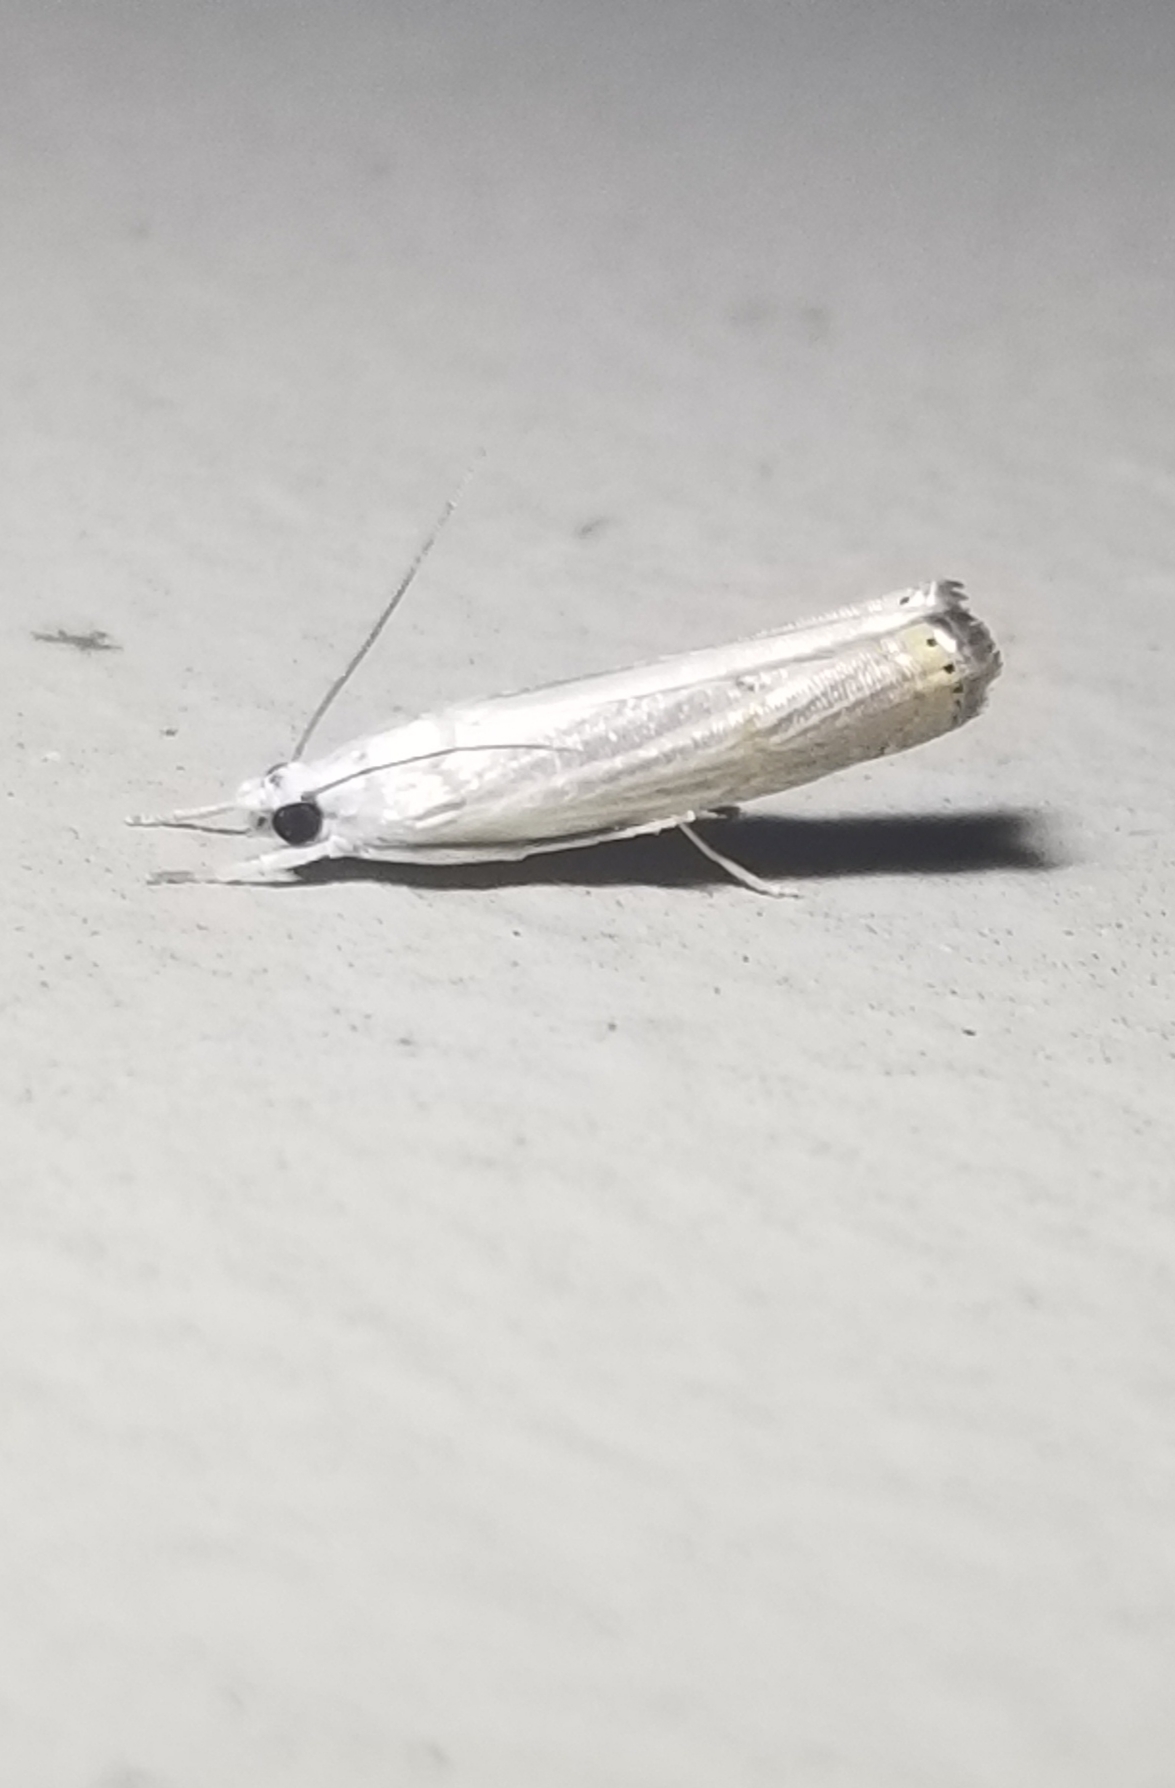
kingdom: Animalia
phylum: Arthropoda
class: Insecta
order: Lepidoptera
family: Crambidae
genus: Parapediasia
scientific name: Parapediasia decorellus
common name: Graceful grass-veneer
